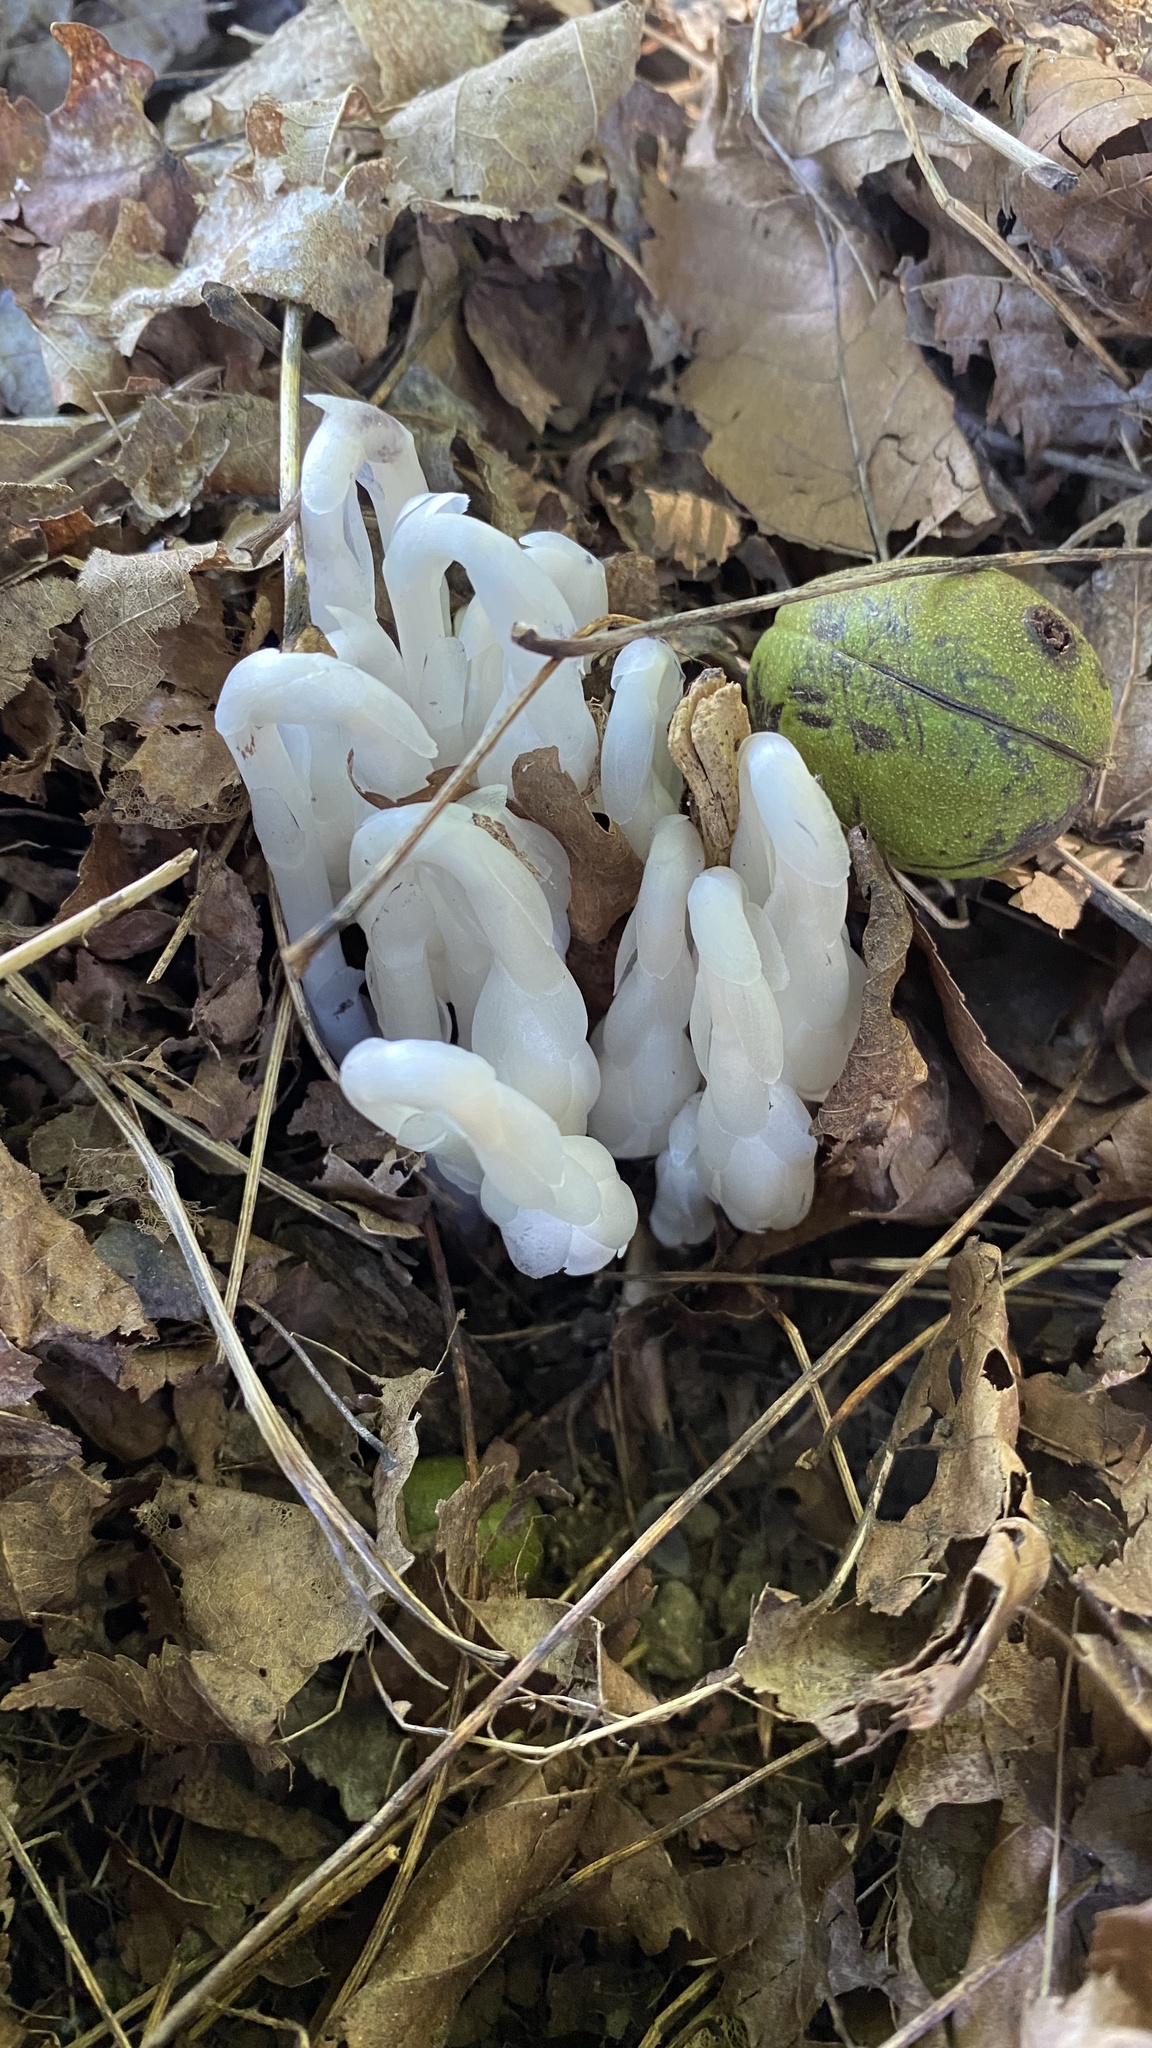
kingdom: Plantae
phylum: Tracheophyta
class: Magnoliopsida
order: Ericales
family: Ericaceae
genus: Monotropa
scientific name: Monotropa uniflora
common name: Convulsion root
